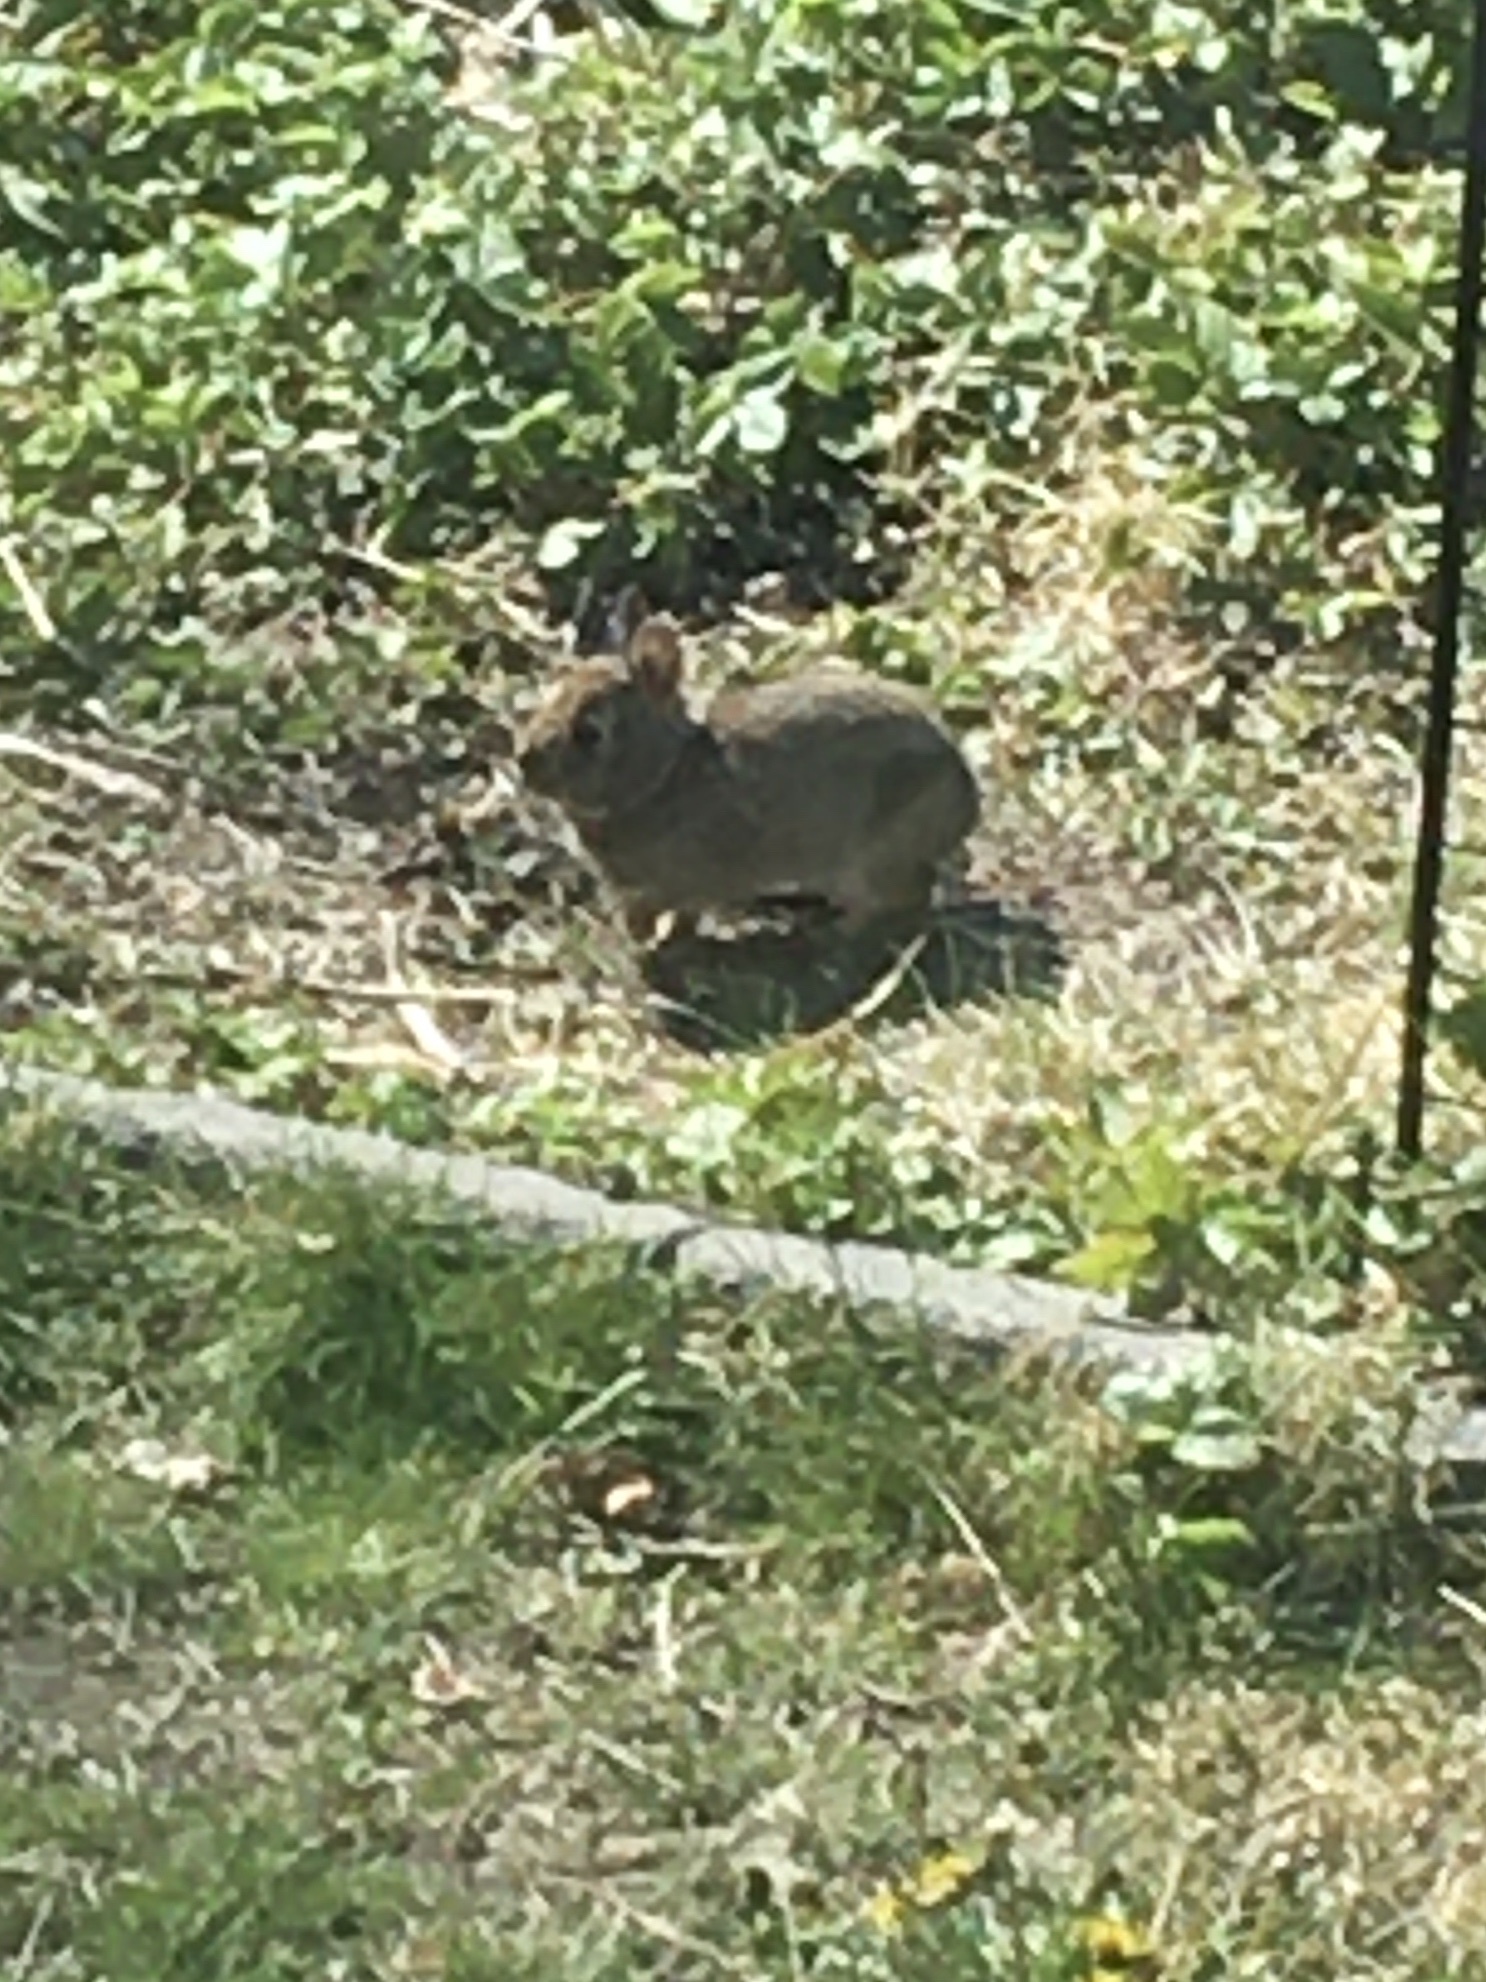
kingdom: Animalia
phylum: Chordata
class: Mammalia
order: Lagomorpha
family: Leporidae
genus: Sylvilagus
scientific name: Sylvilagus floridanus
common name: Eastern cottontail
